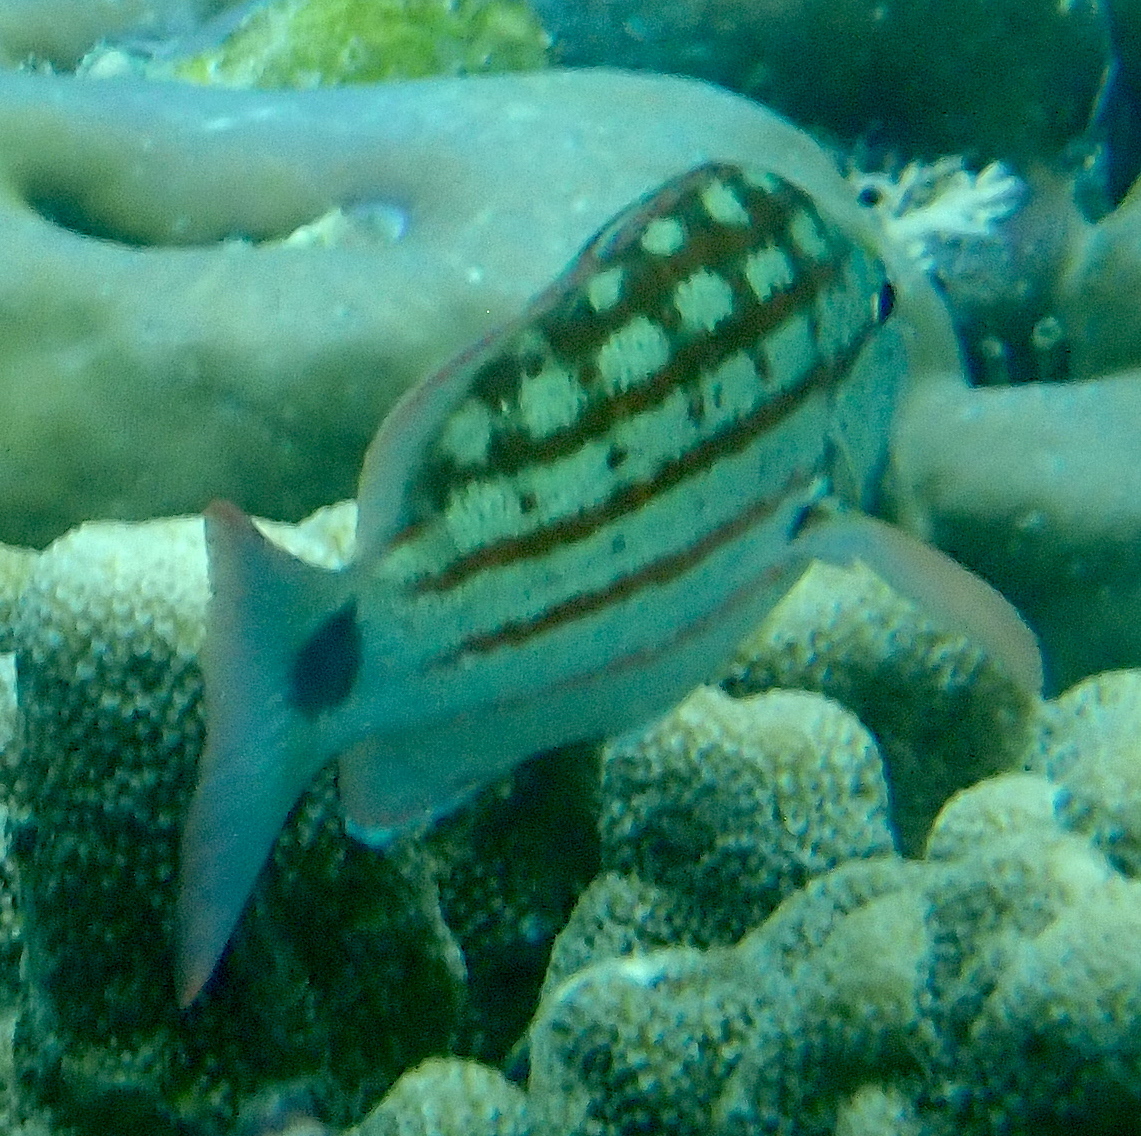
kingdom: Animalia
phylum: Chordata
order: Perciformes
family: Lutjanidae
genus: Lutjanus
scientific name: Lutjanus decussatus
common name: Checkered snapper
